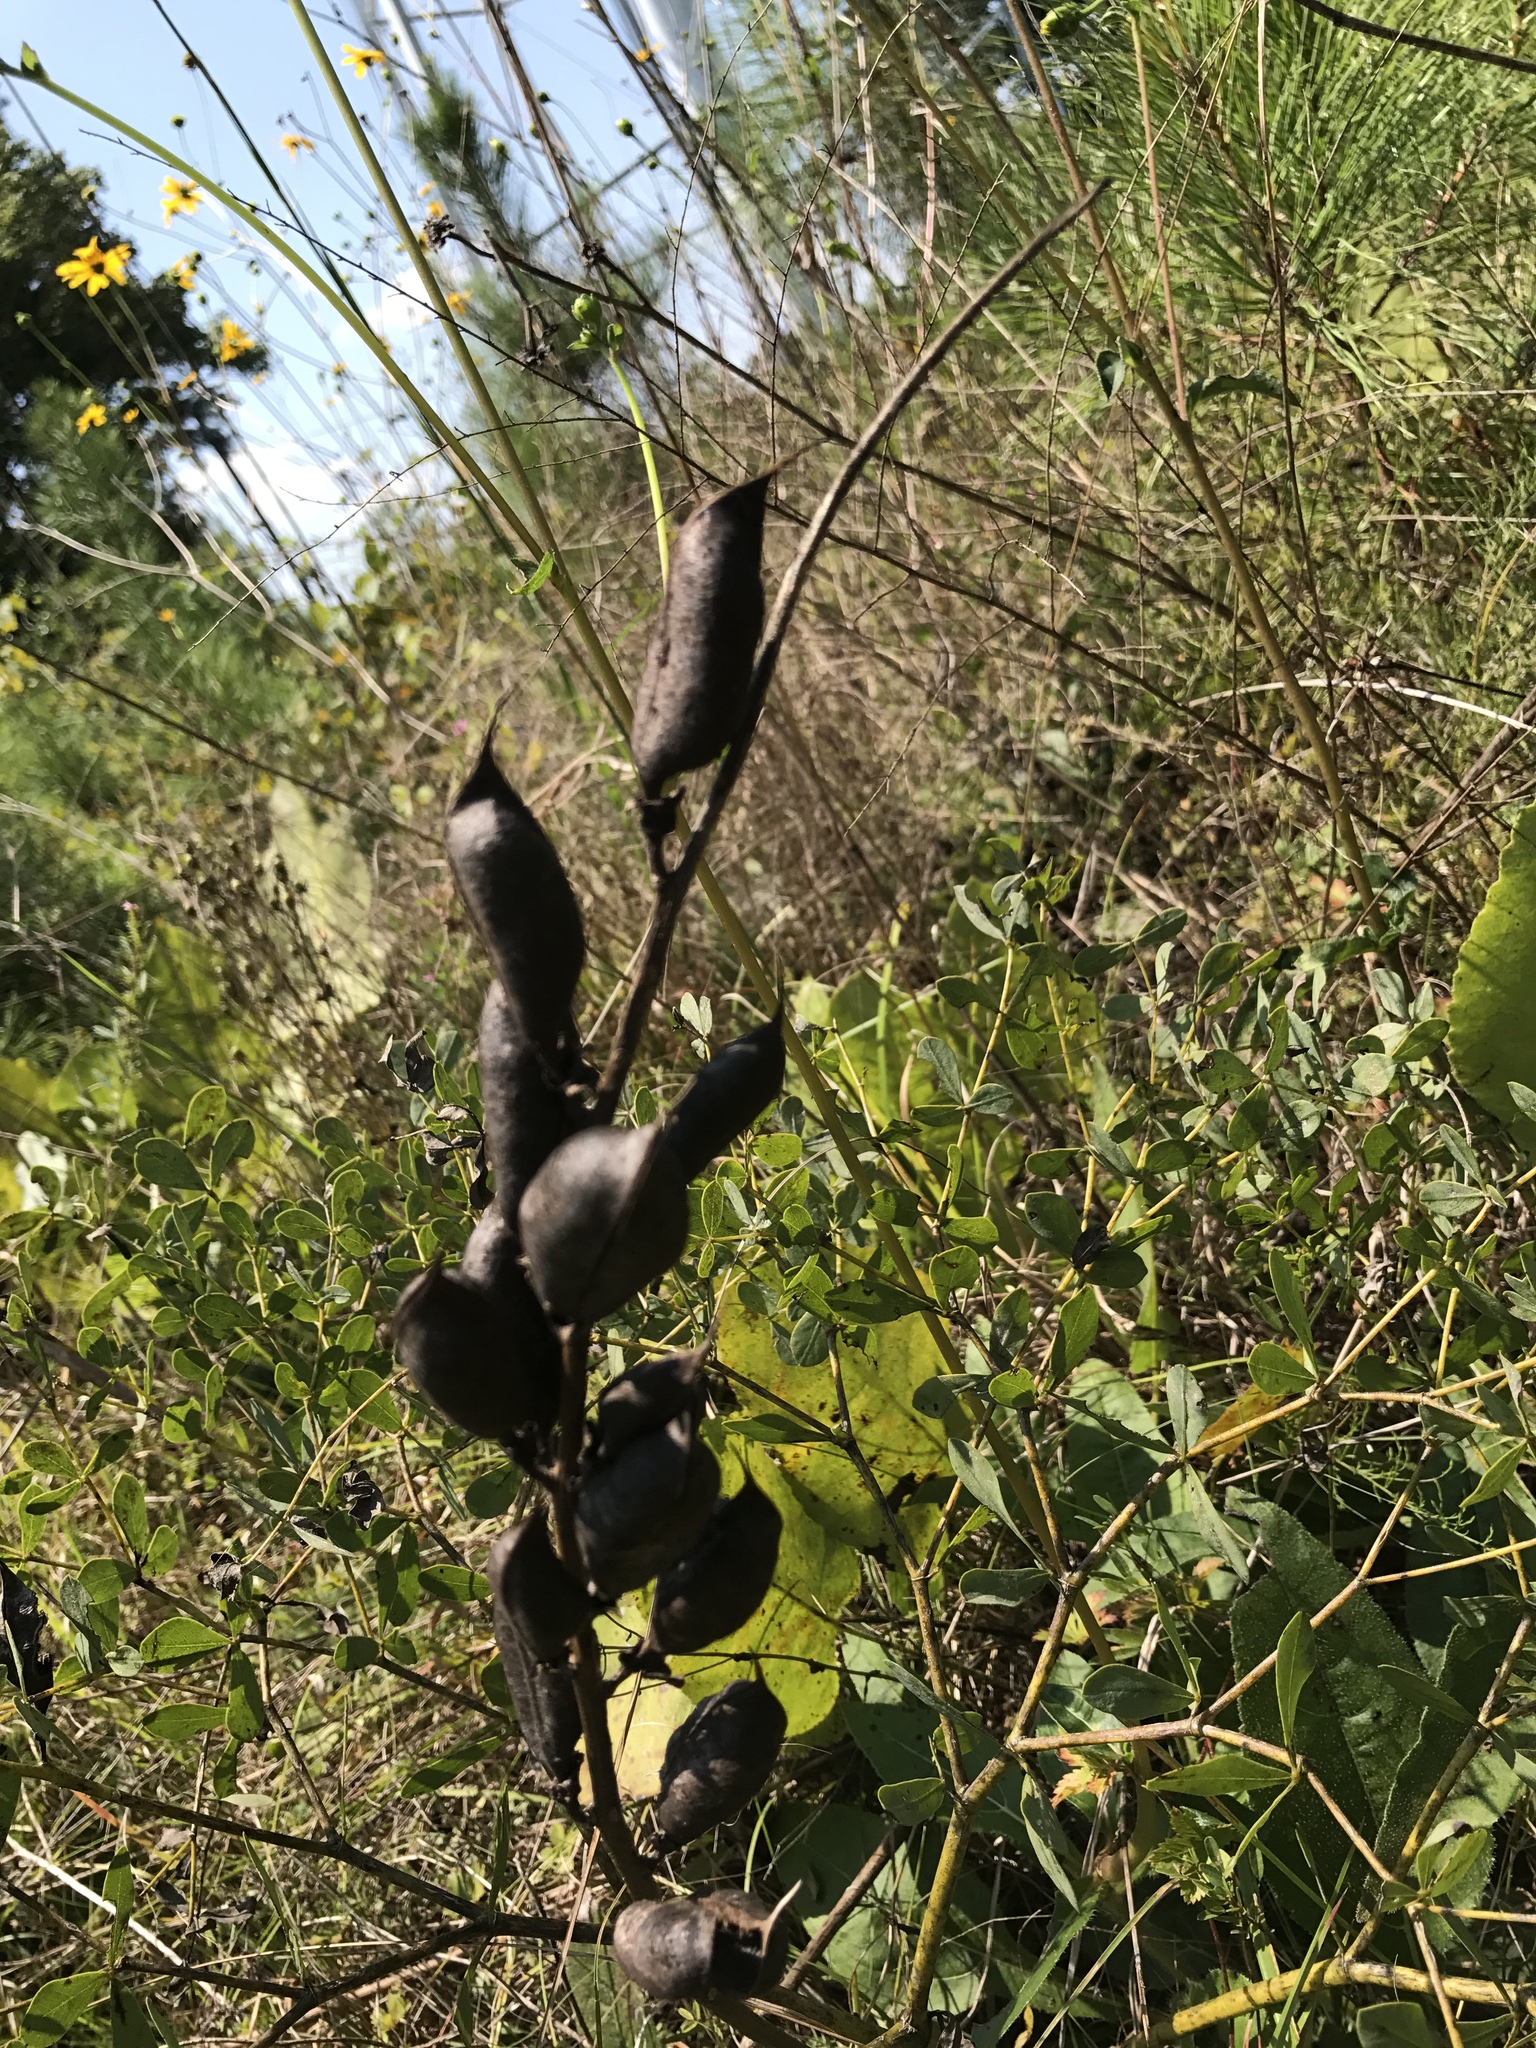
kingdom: Plantae
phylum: Tracheophyta
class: Magnoliopsida
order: Fabales
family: Fabaceae
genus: Baptisia
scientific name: Baptisia aberrans
